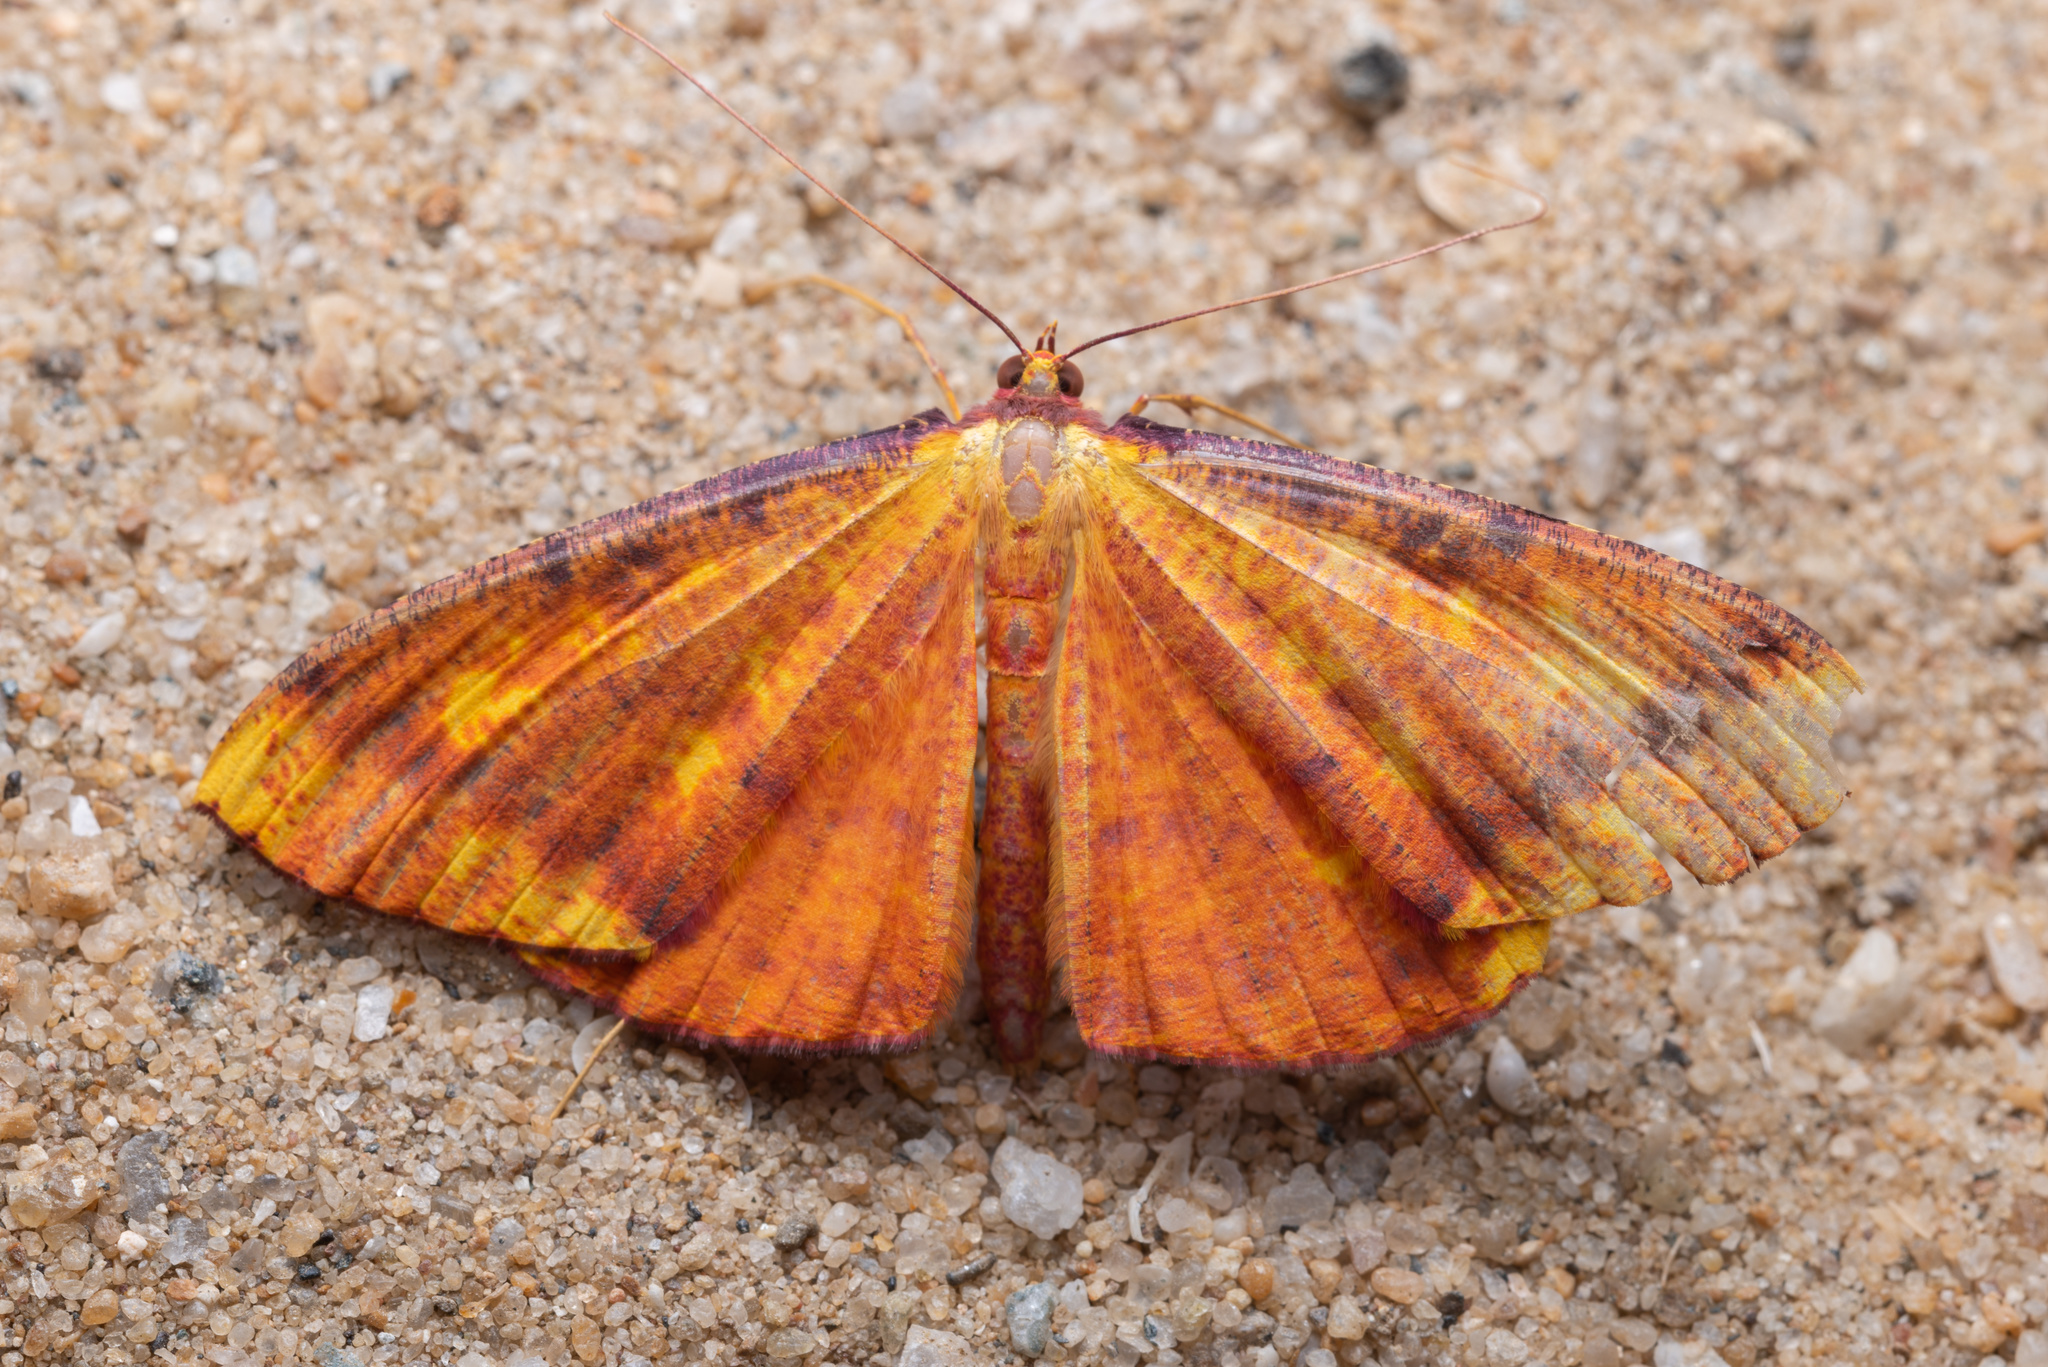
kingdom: Animalia
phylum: Arthropoda
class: Insecta
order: Lepidoptera
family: Geometridae
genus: Eumelea
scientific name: Eumelea biflavata
